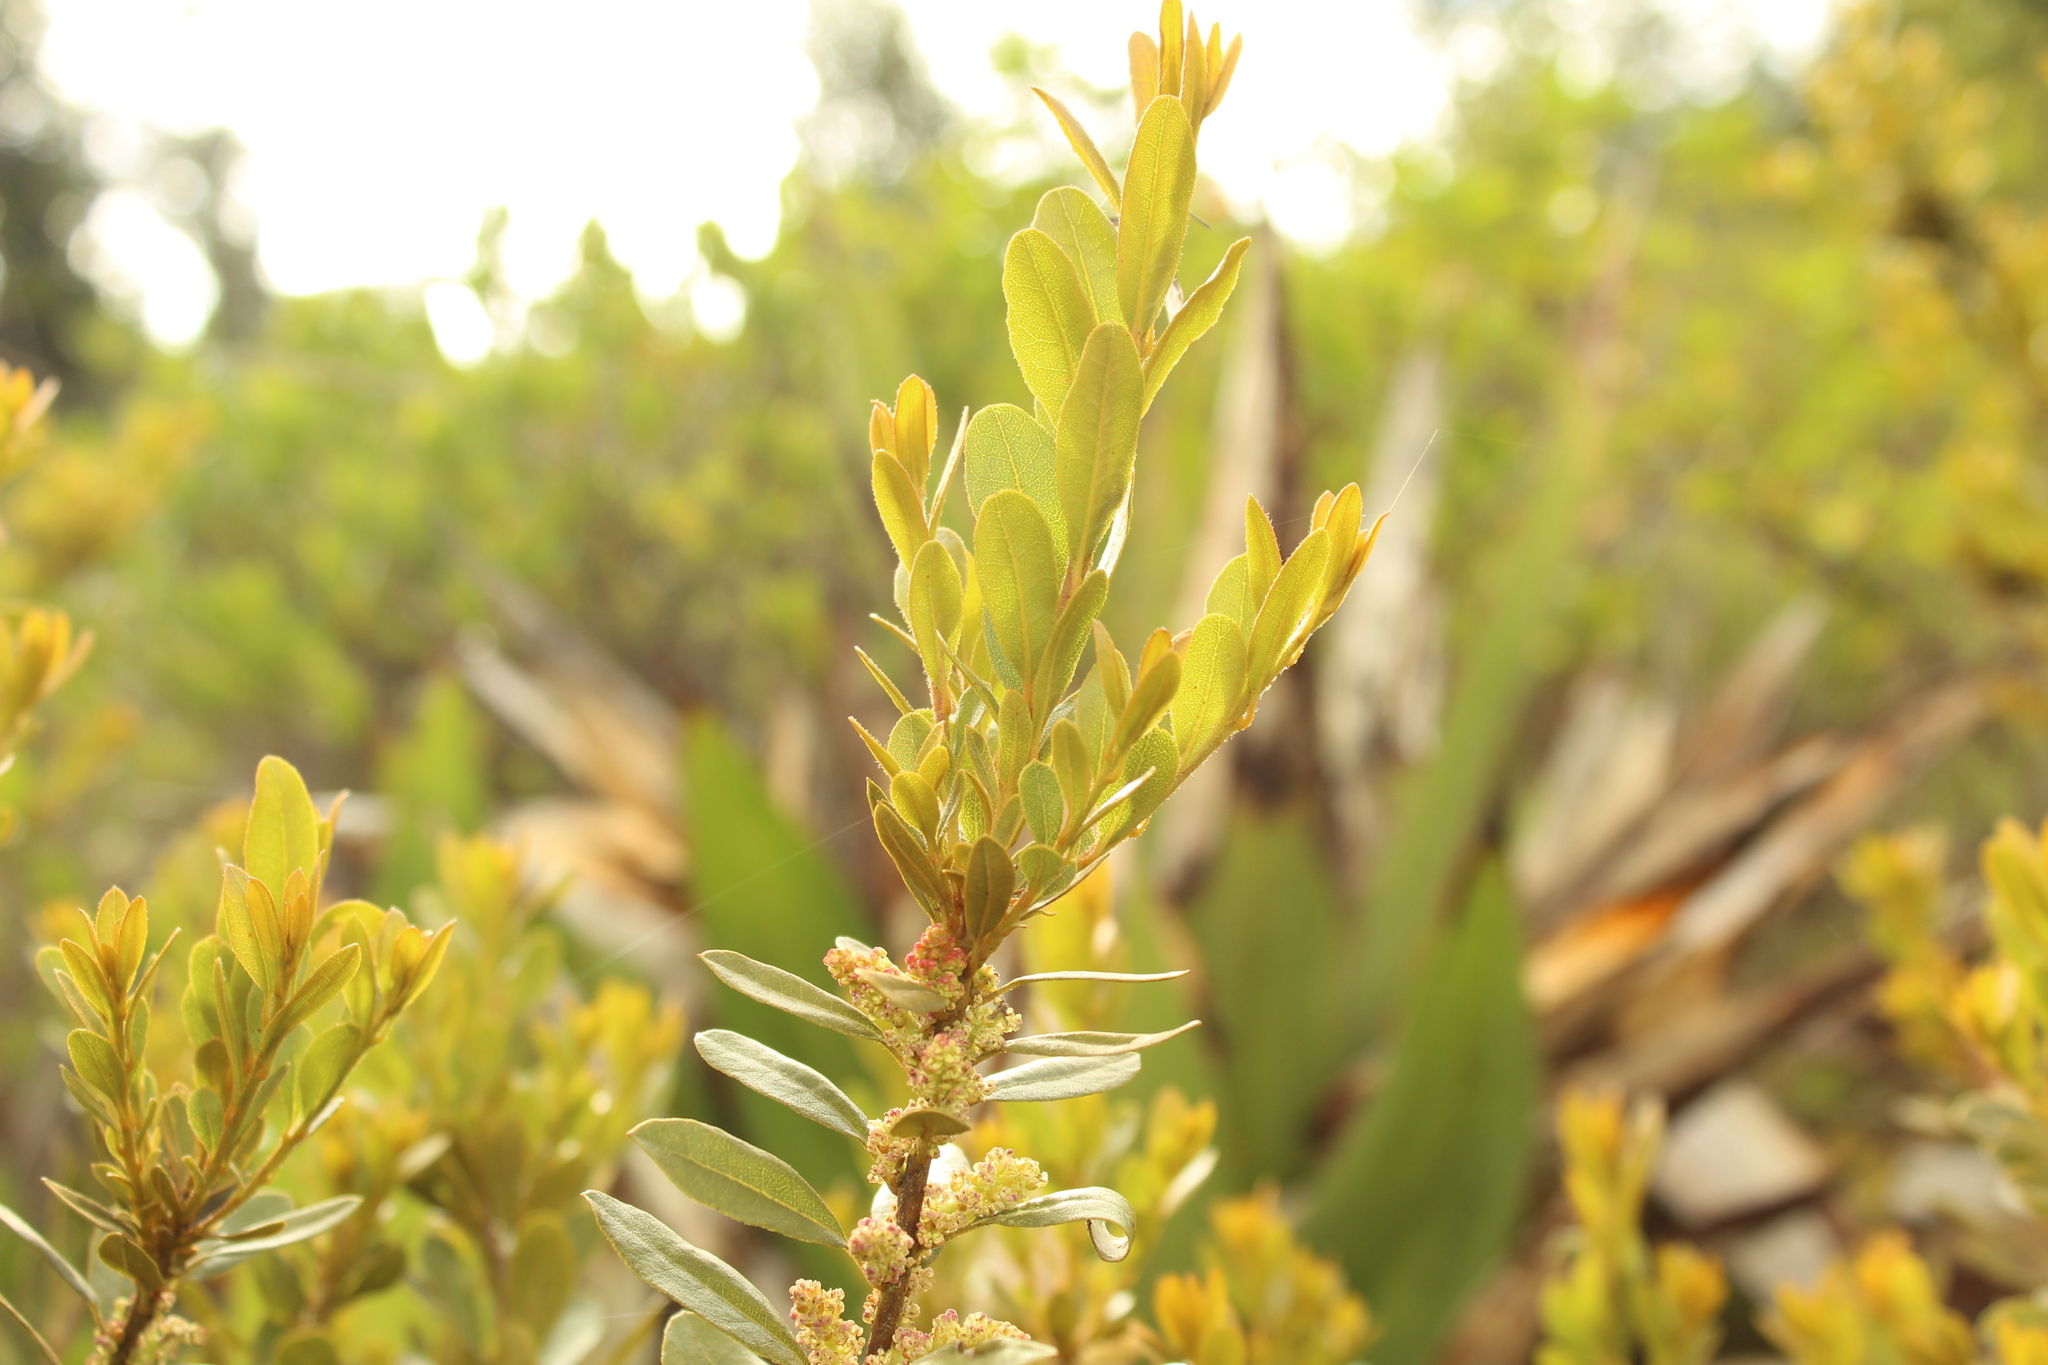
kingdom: Plantae
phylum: Tracheophyta
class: Magnoliopsida
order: Fagales
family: Myricaceae
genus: Morella
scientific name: Morella parvifolia
